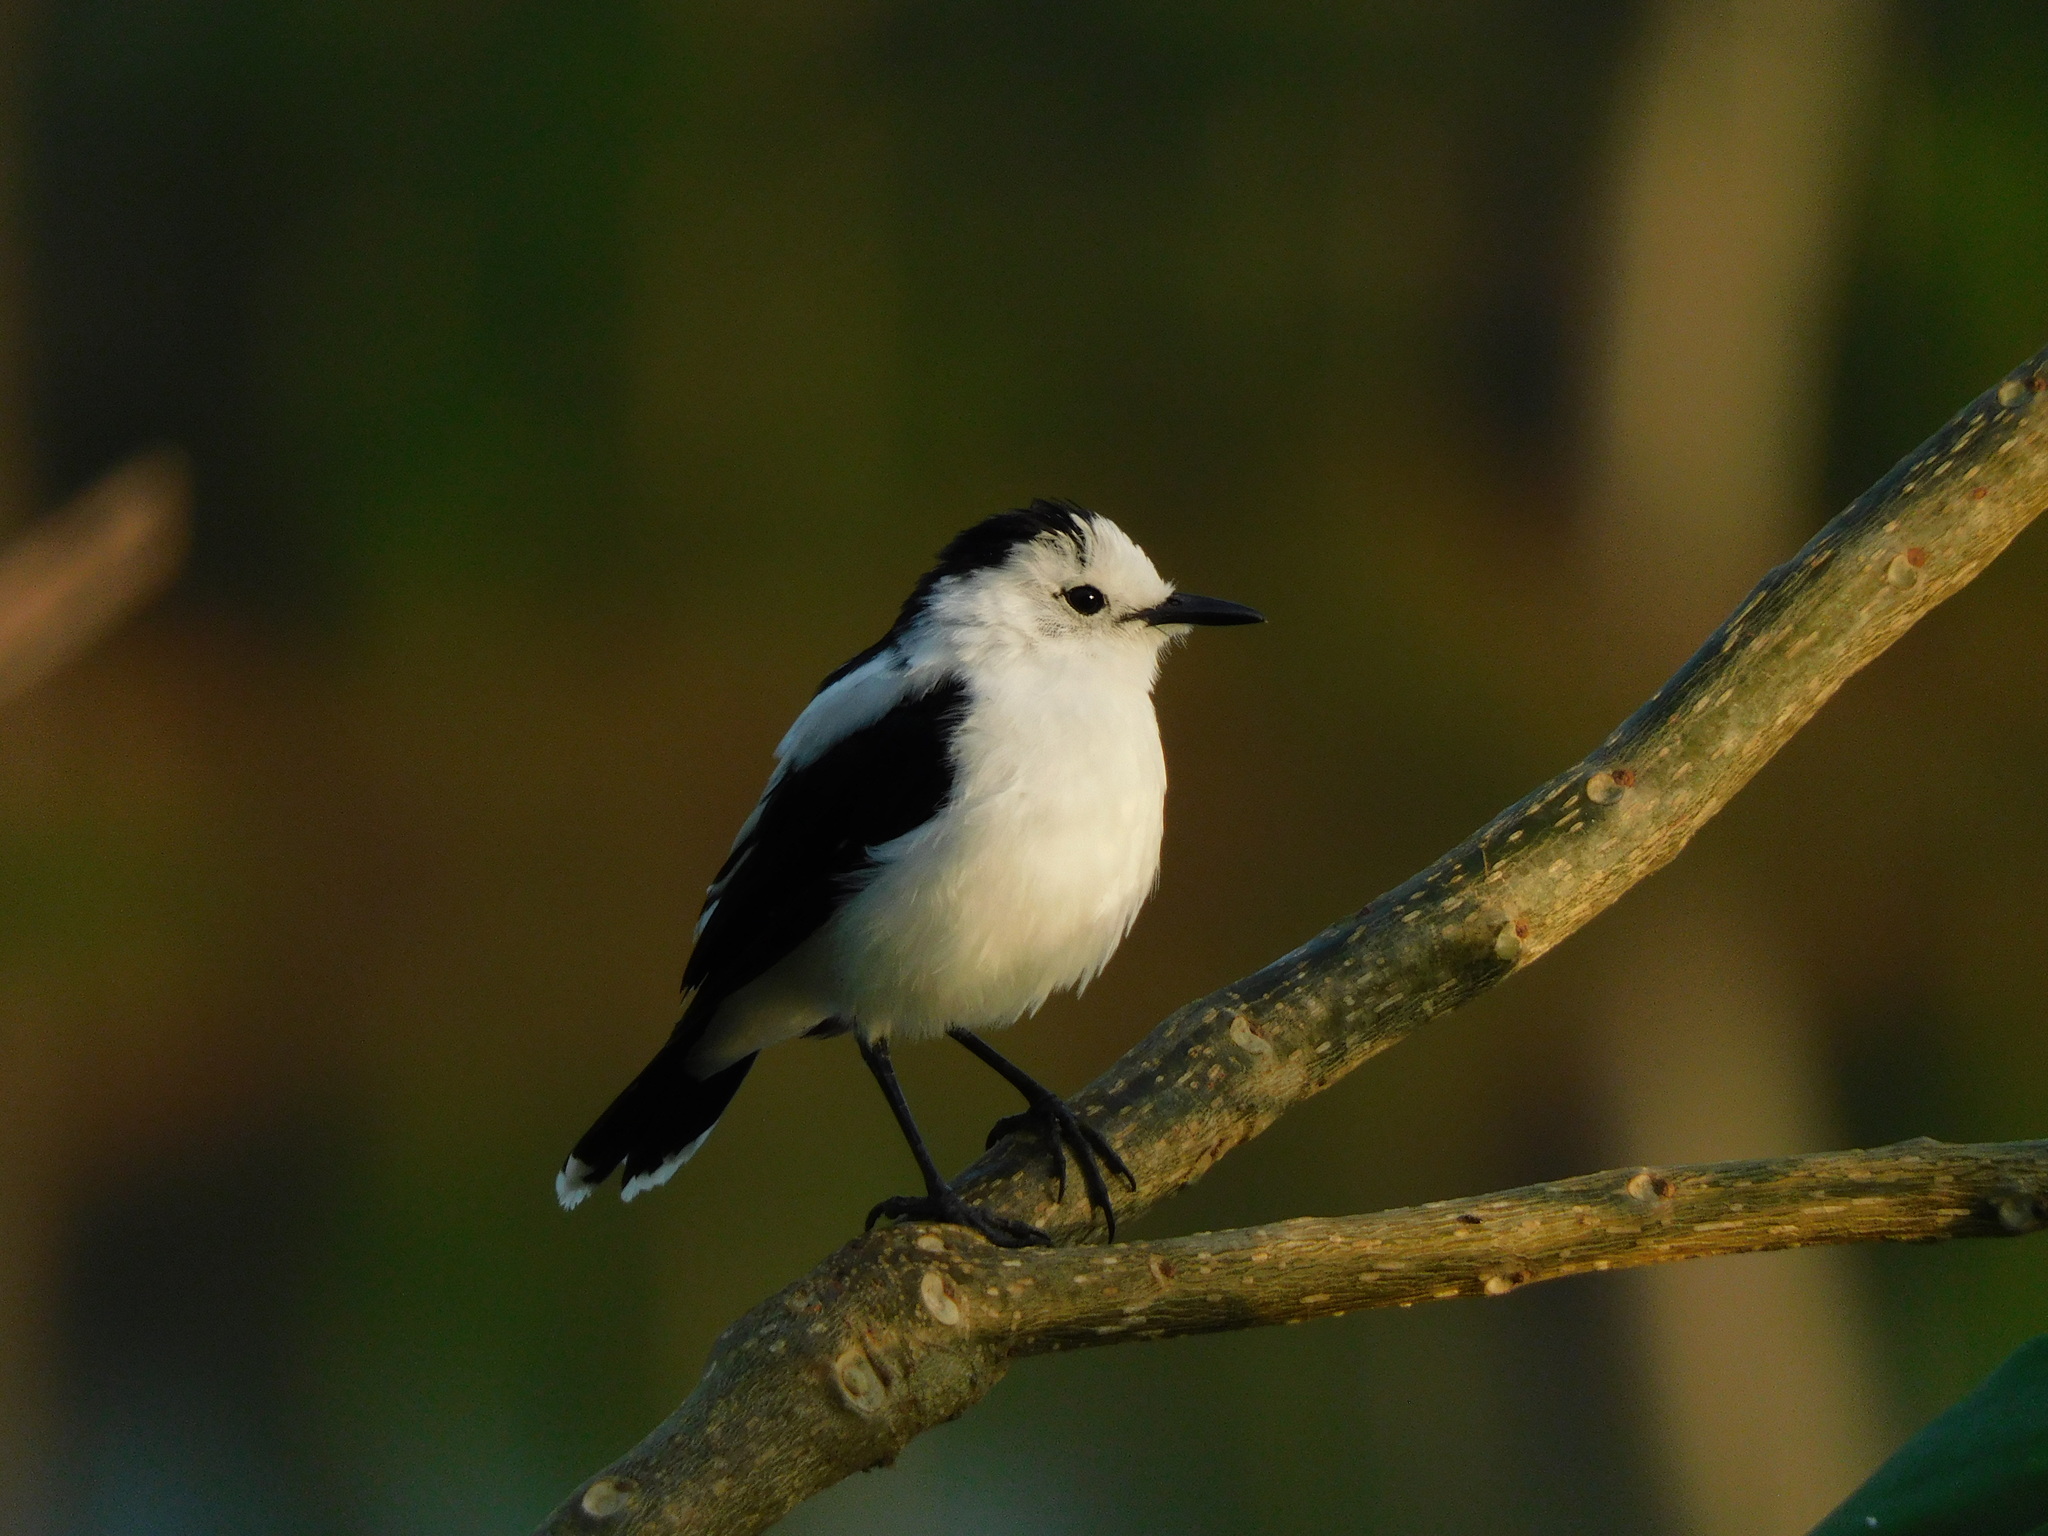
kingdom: Animalia
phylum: Chordata
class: Aves
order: Passeriformes
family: Tyrannidae
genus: Fluvicola
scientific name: Fluvicola pica
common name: Pied water-tyrant
